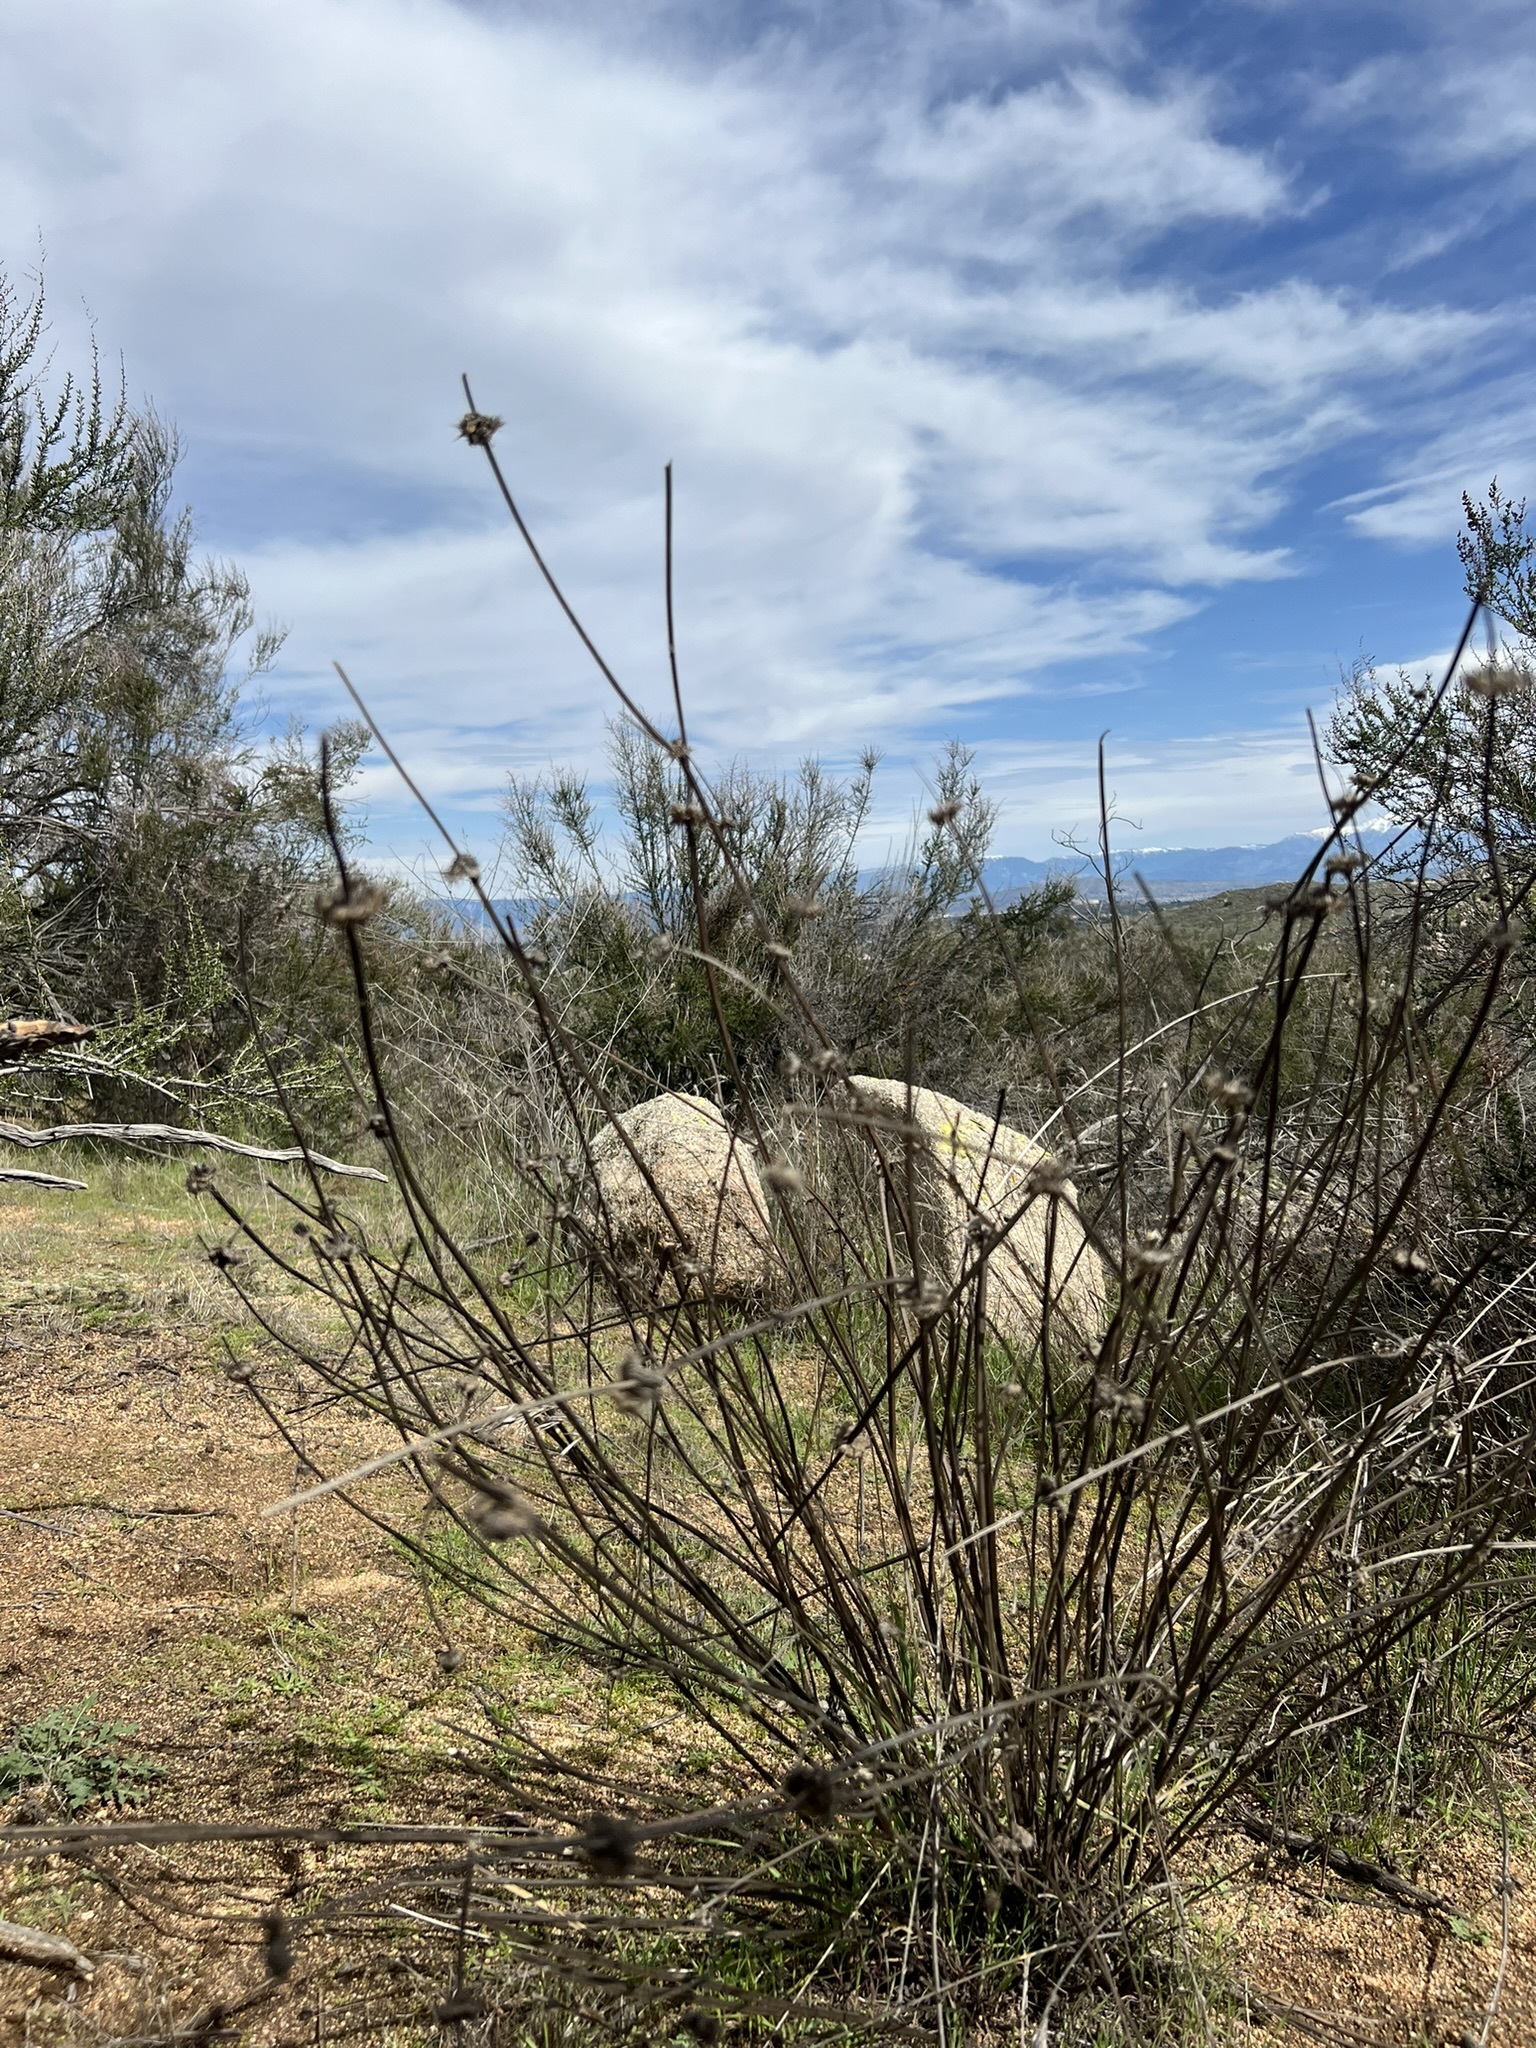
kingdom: Plantae
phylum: Tracheophyta
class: Magnoliopsida
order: Lamiales
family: Lamiaceae
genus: Salvia
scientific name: Salvia columbariae
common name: Chia
